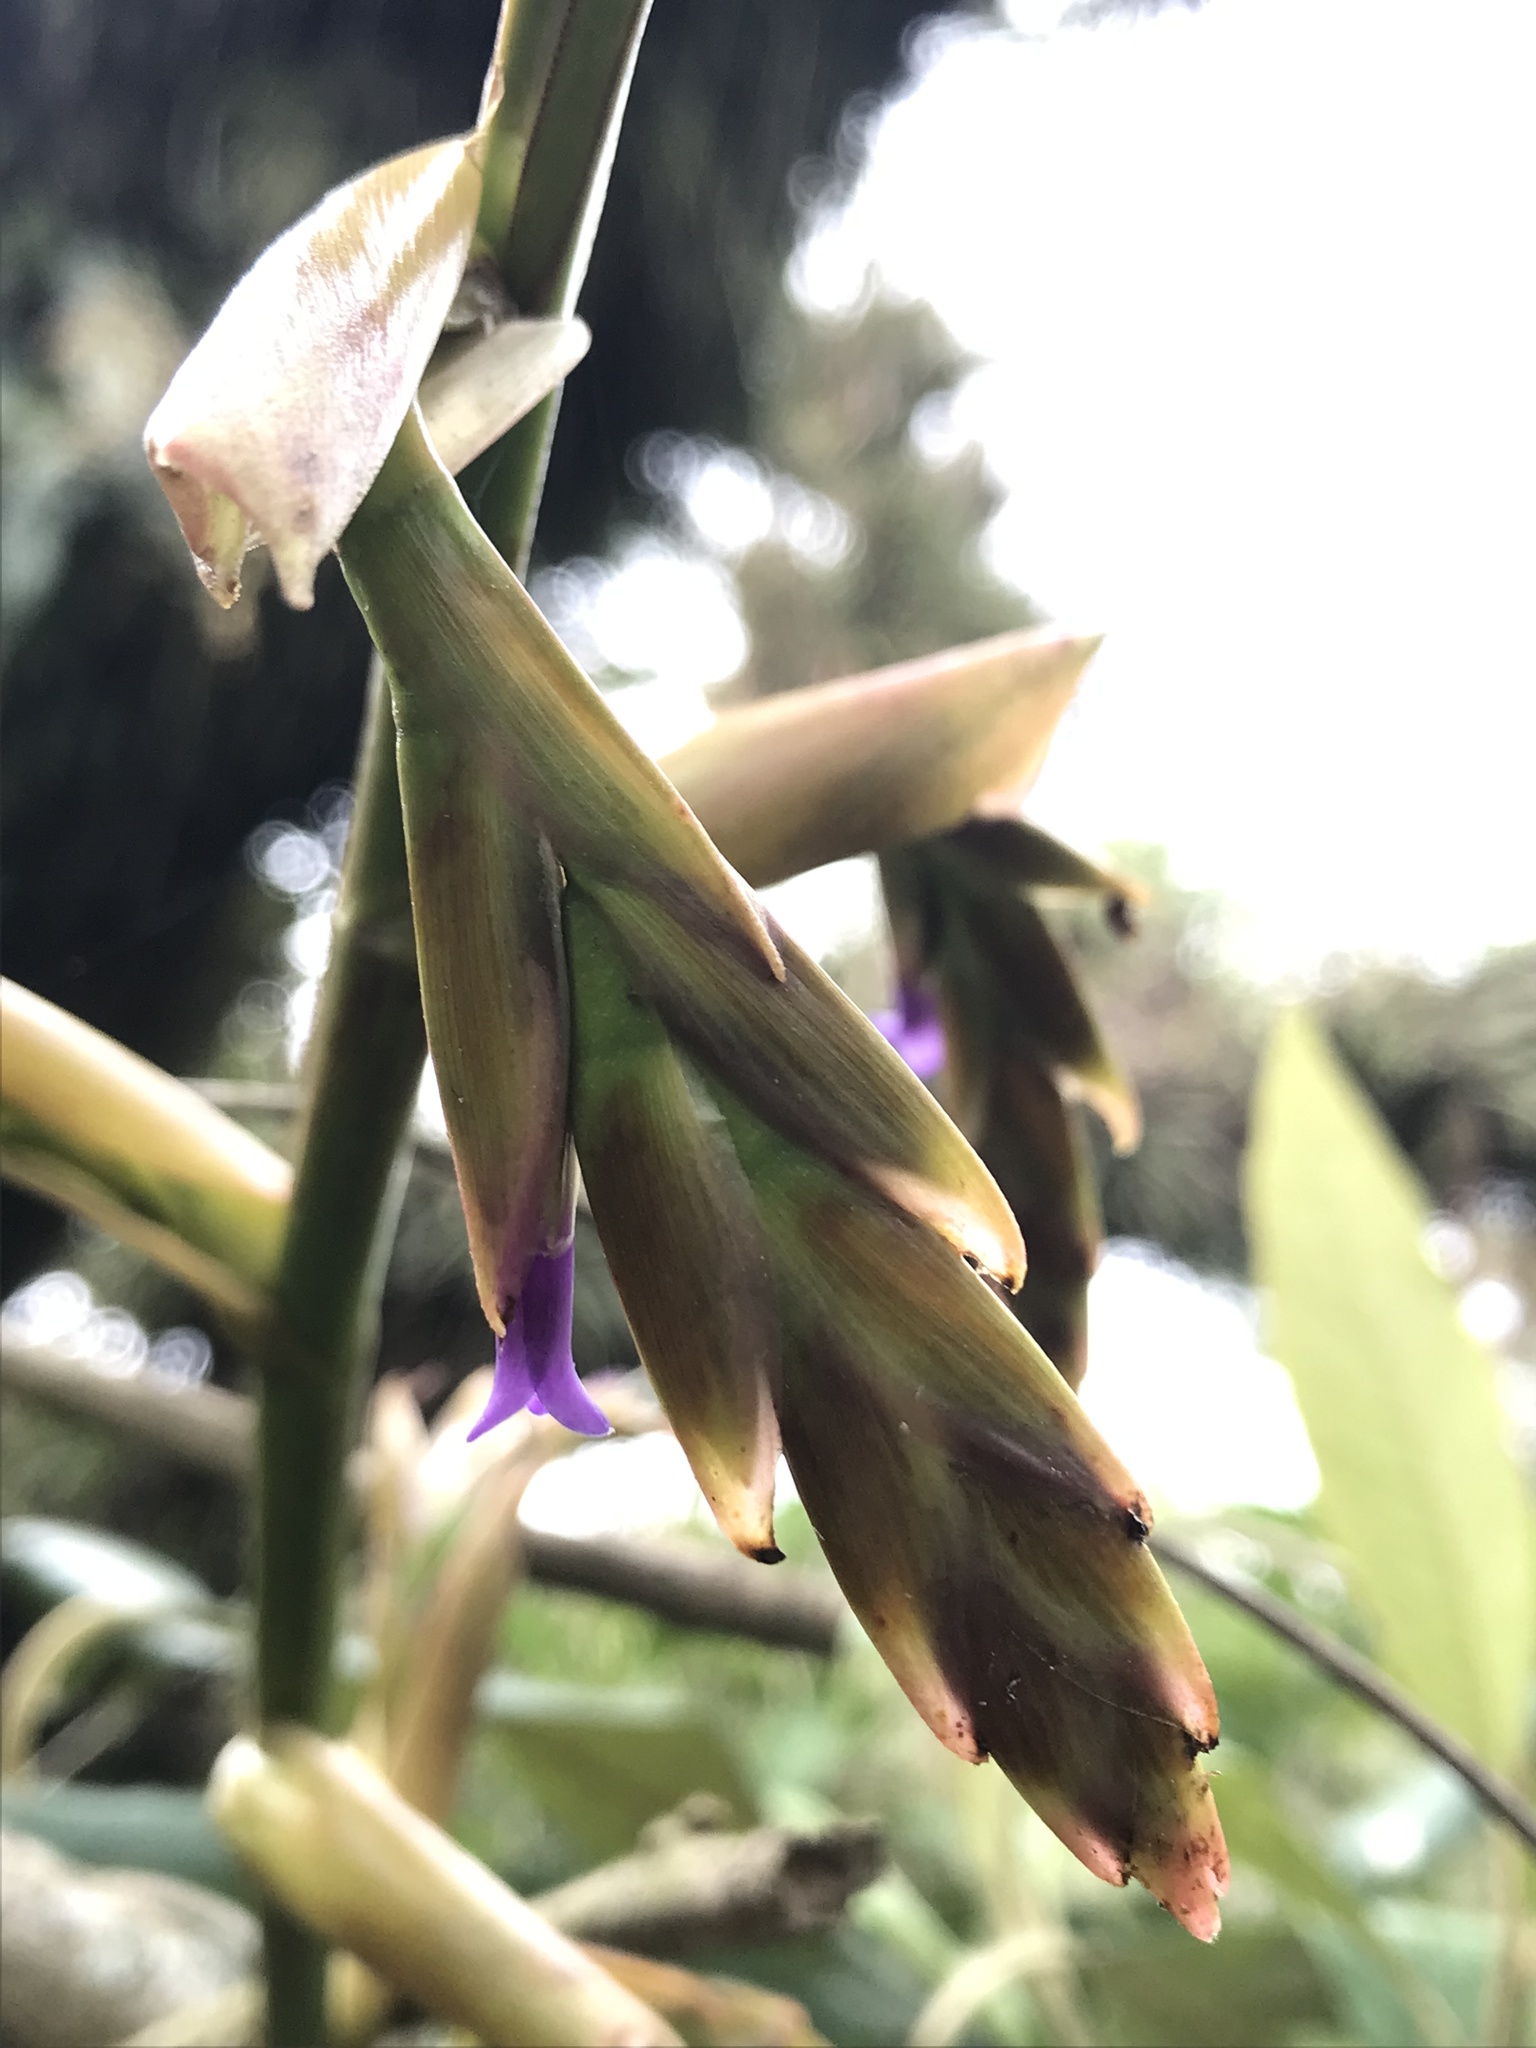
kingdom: Plantae
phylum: Tracheophyta
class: Liliopsida
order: Poales
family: Bromeliaceae
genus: Tillandsia
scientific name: Tillandsia denudata
